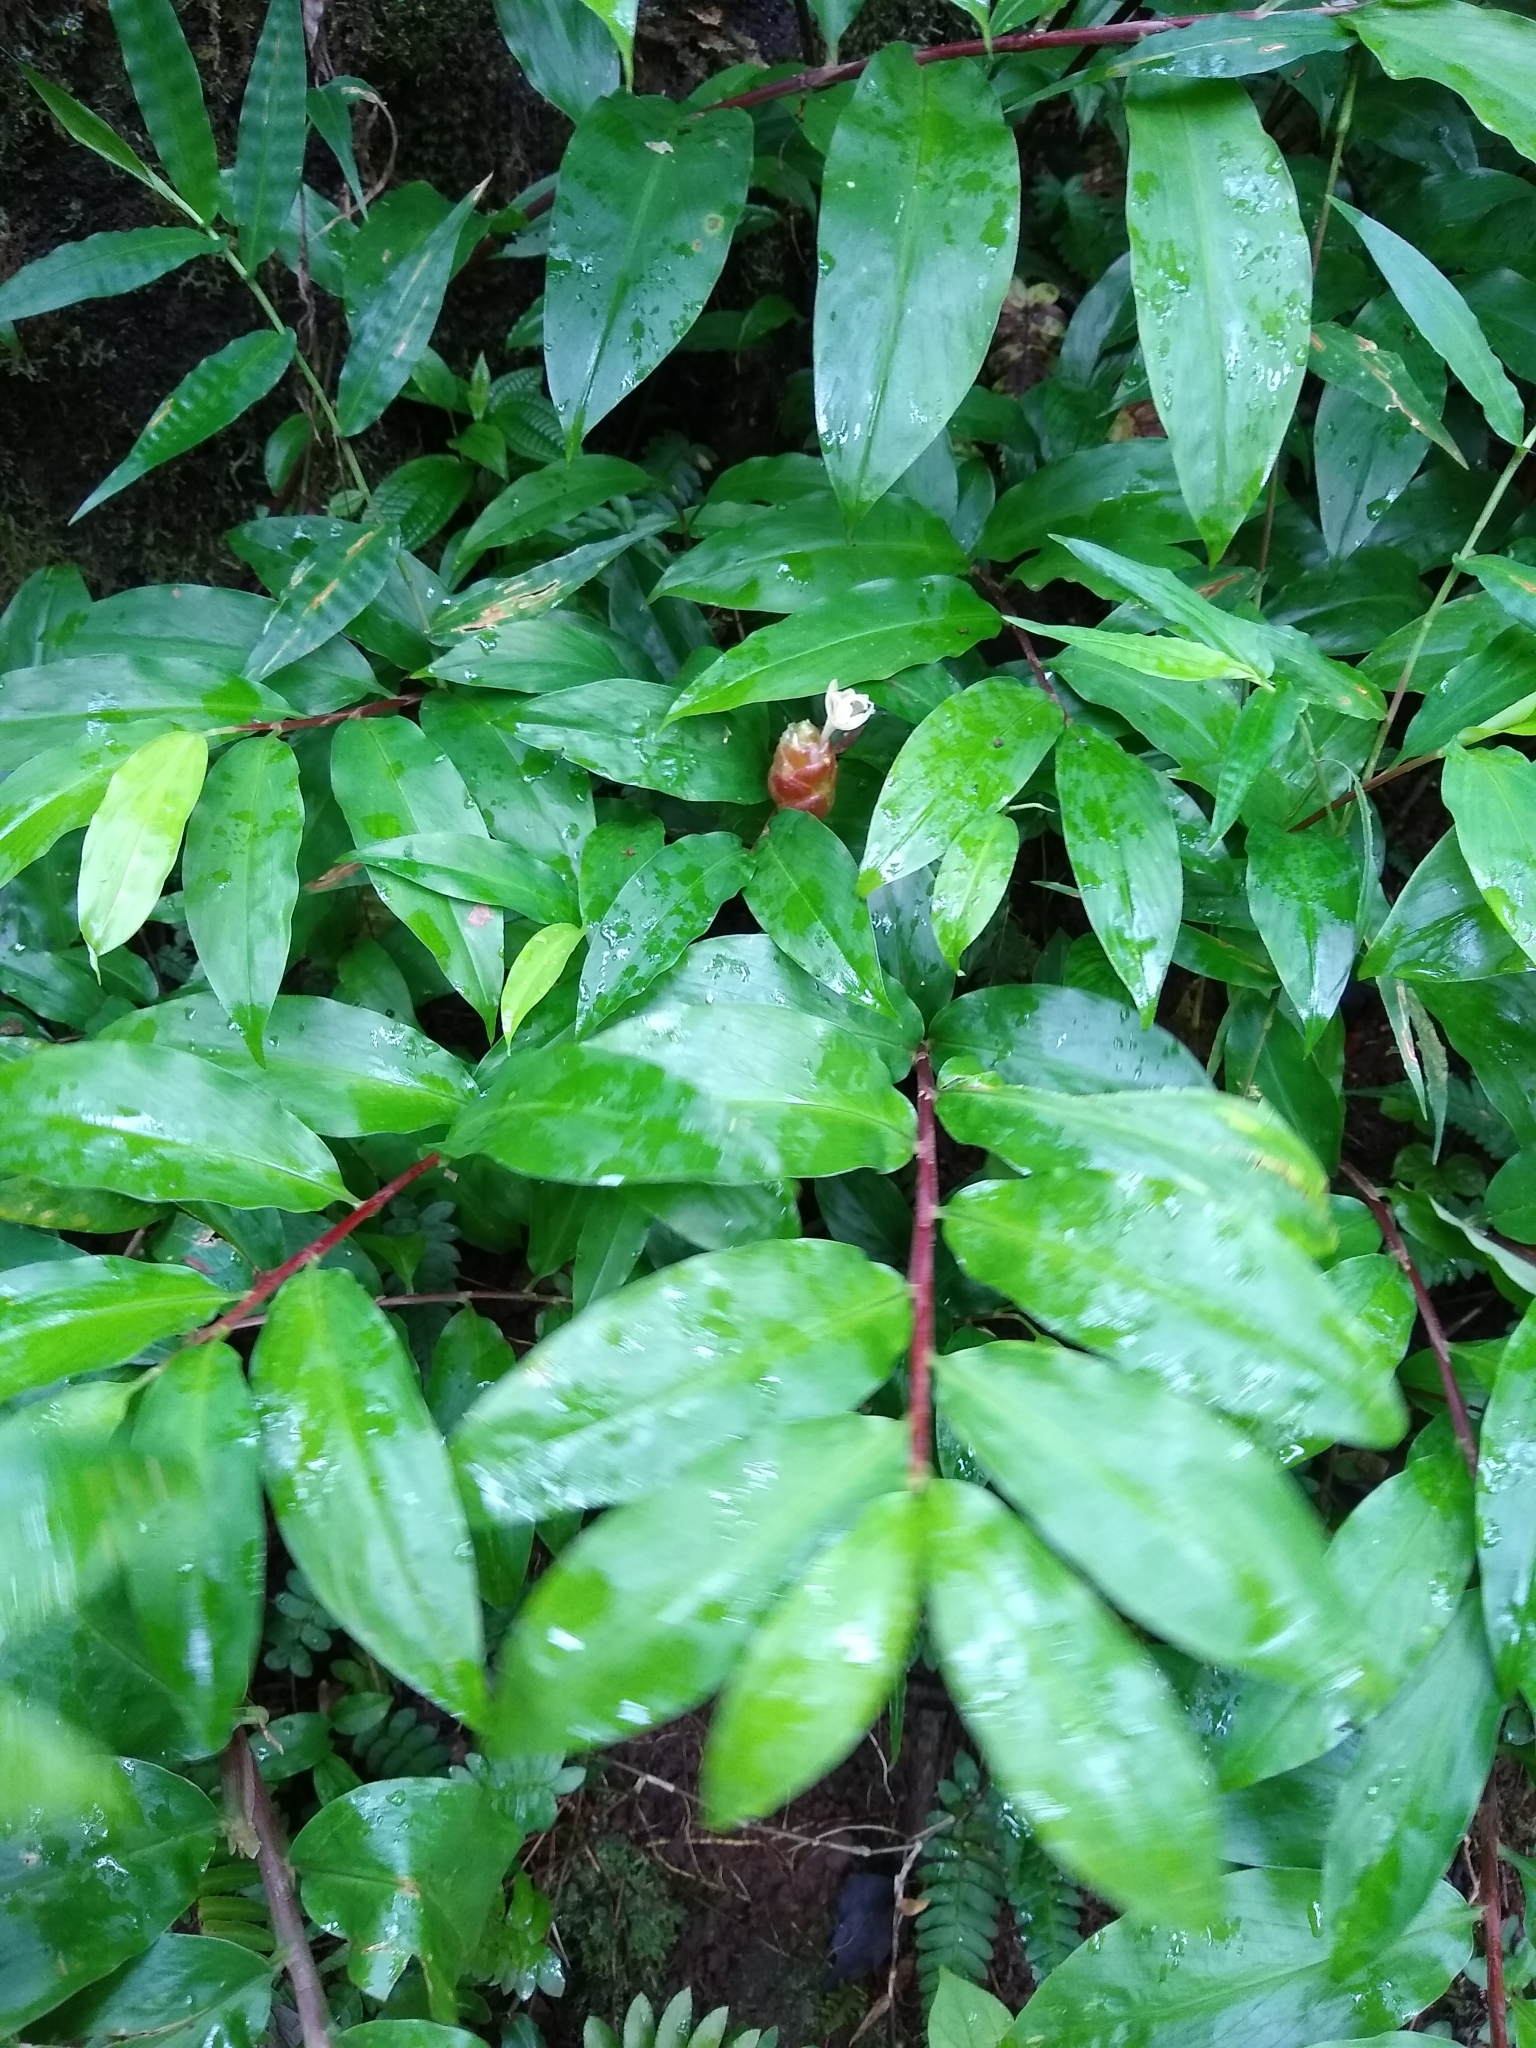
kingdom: Plantae
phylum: Tracheophyta
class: Liliopsida
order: Zingiberales
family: Zingiberaceae
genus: Zingiber
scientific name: Zingiber zerumbet
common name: Bitter ginger
